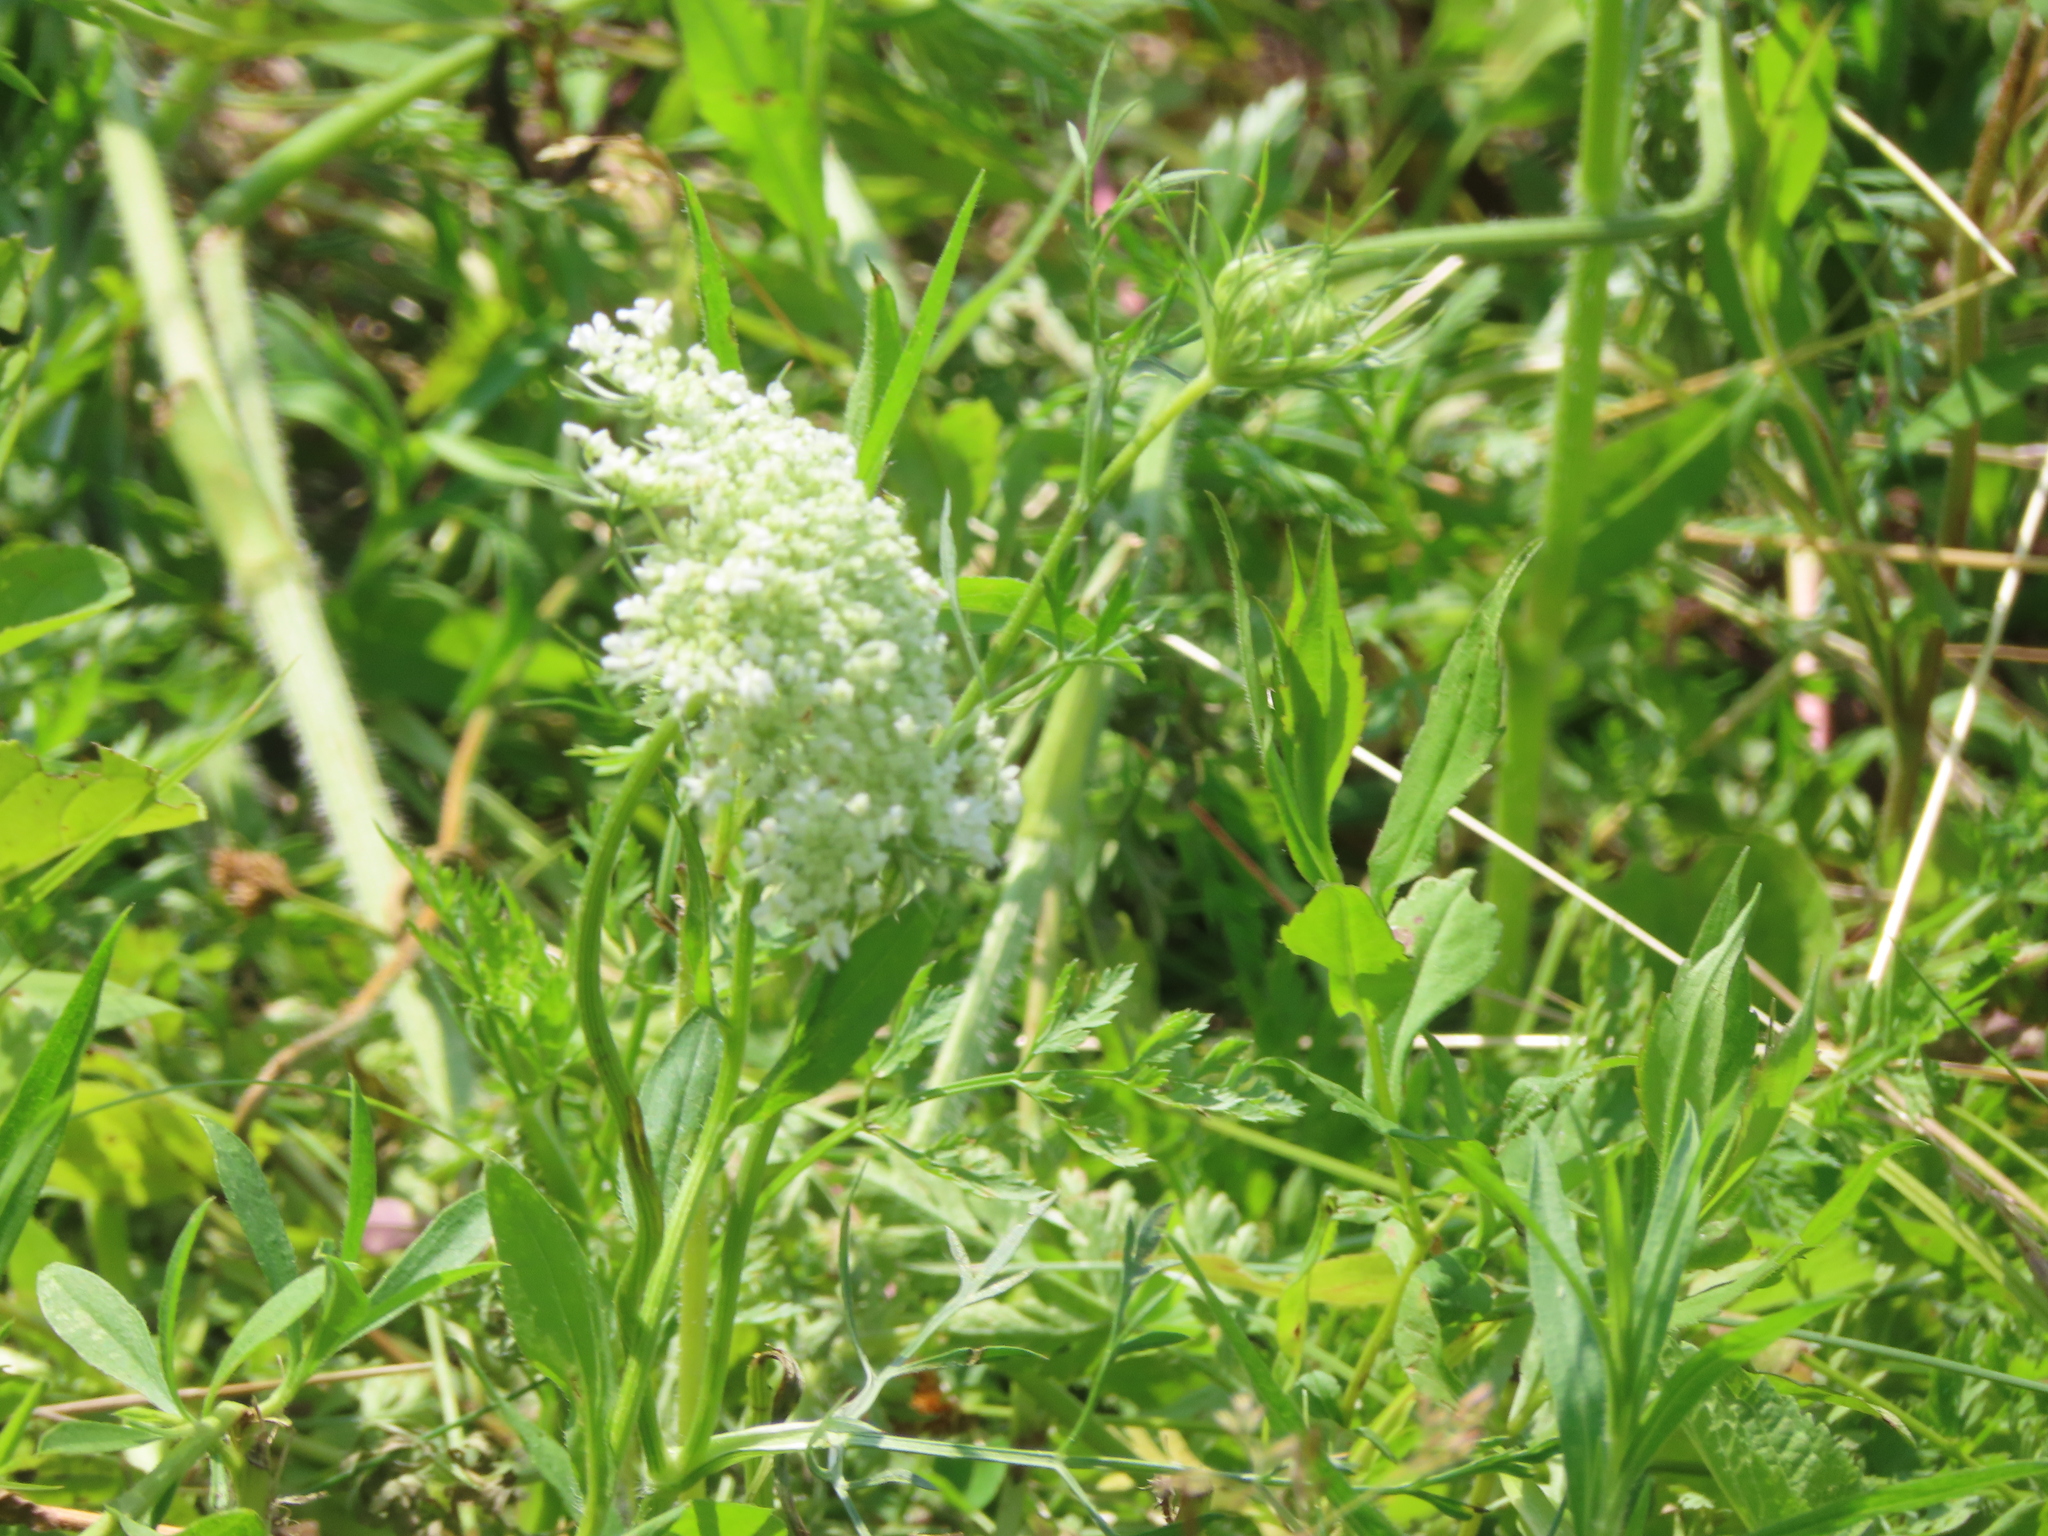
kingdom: Plantae
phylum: Tracheophyta
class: Magnoliopsida
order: Apiales
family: Apiaceae
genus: Daucus
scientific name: Daucus carota
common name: Wild carrot
